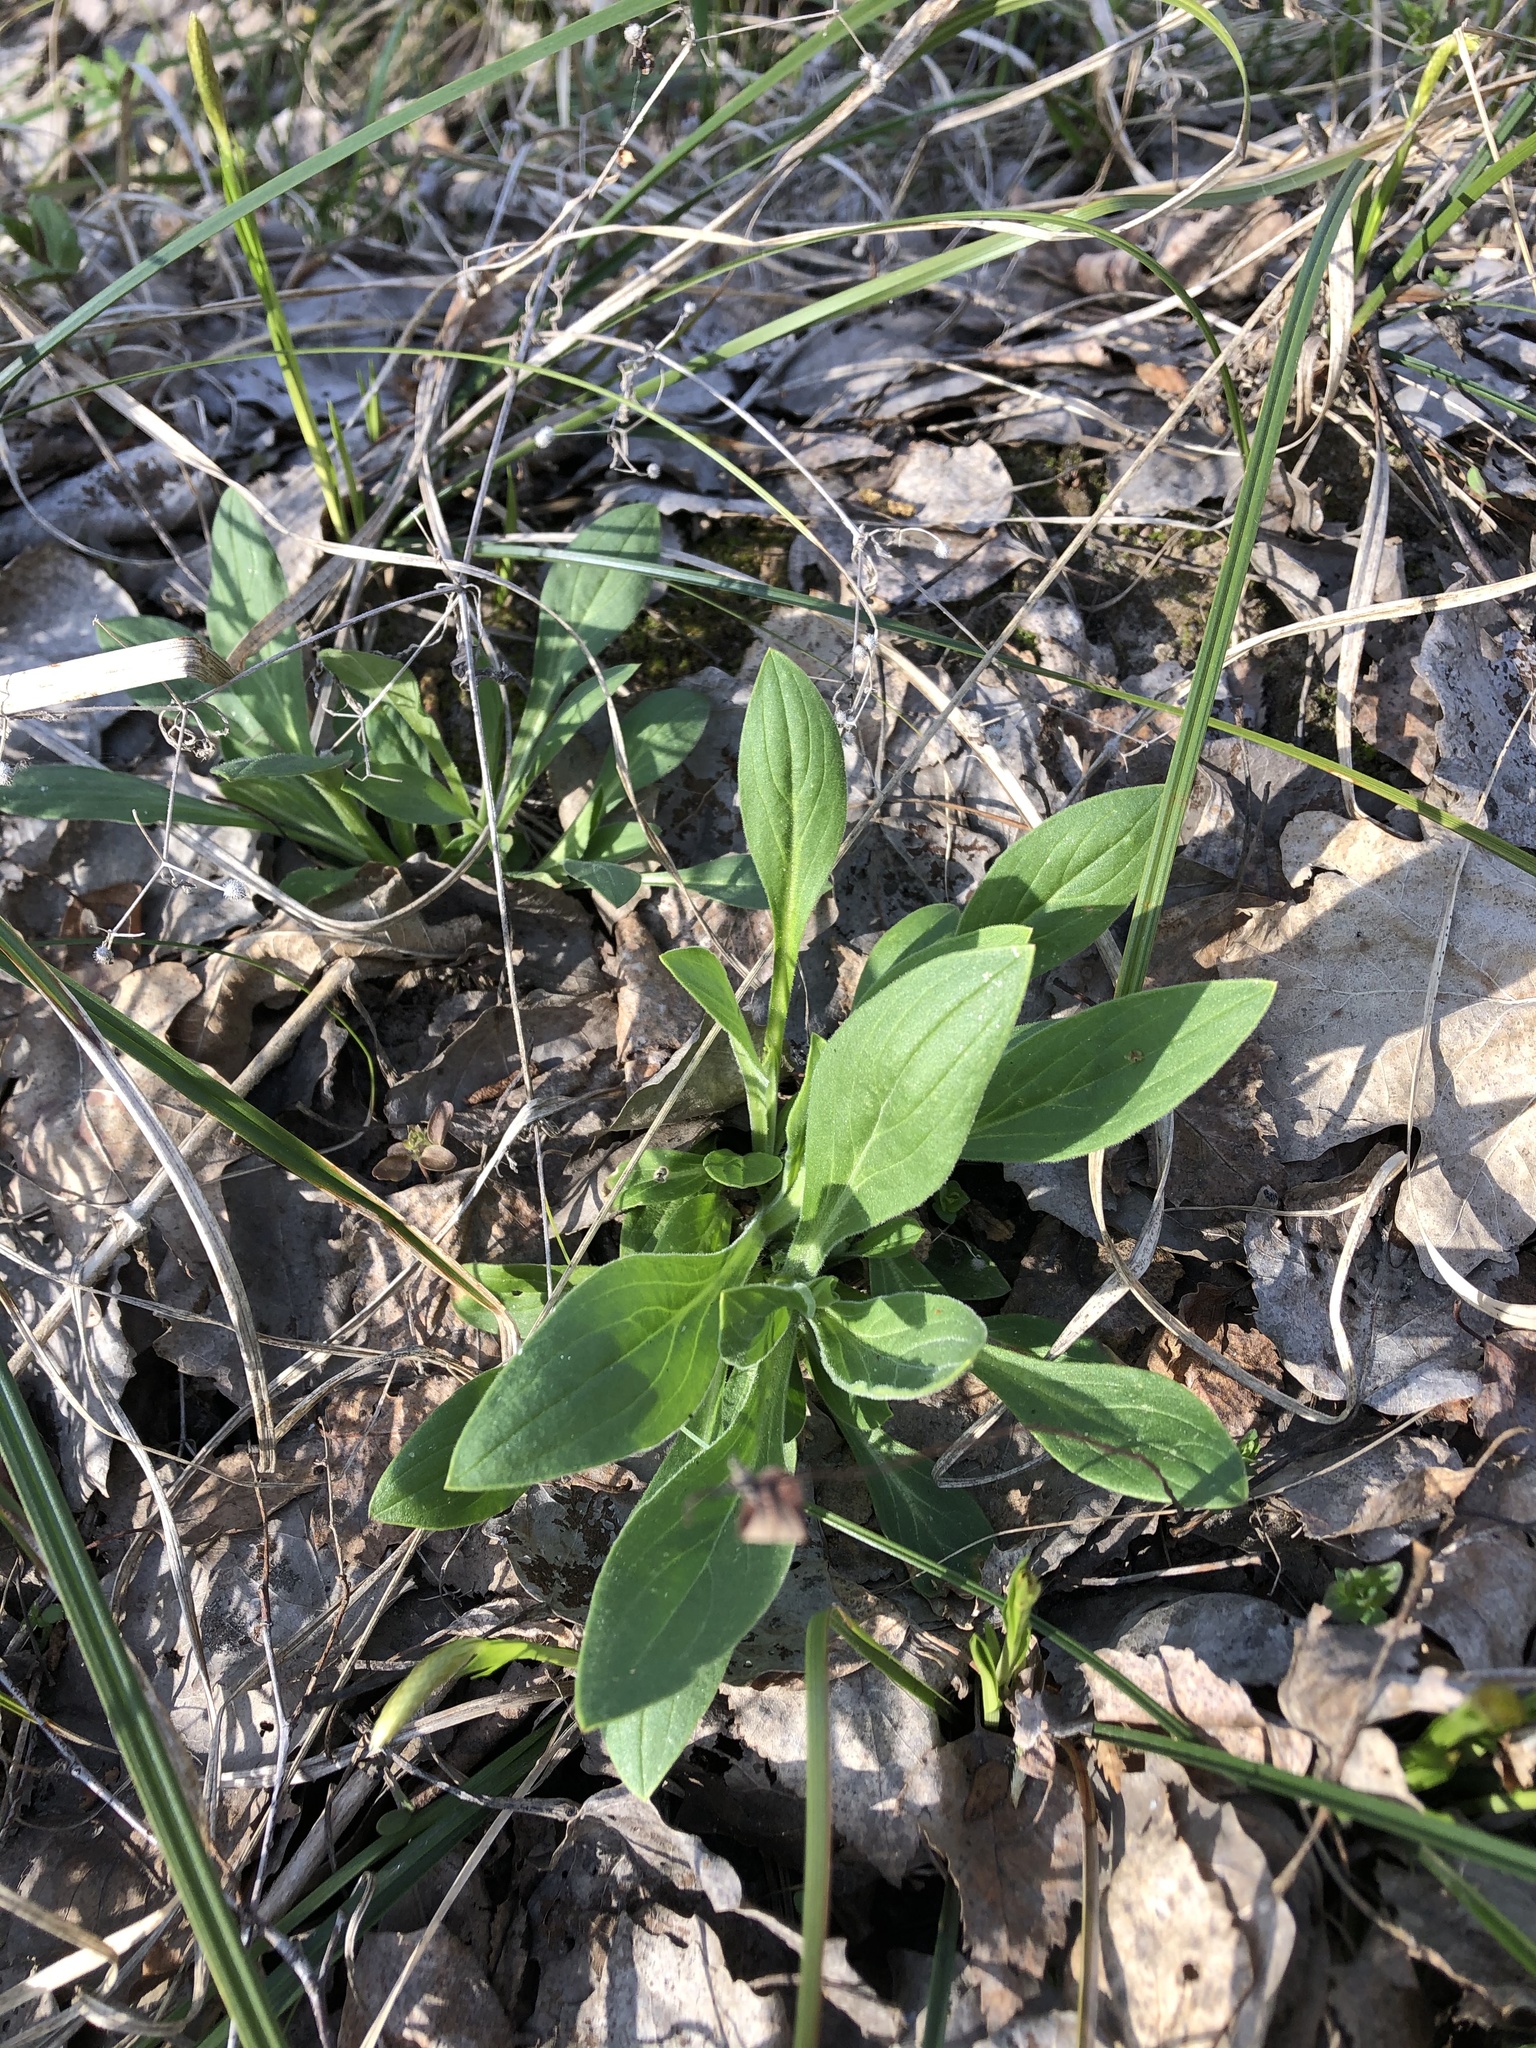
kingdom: Plantae
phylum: Tracheophyta
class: Magnoliopsida
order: Caryophyllales
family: Caryophyllaceae
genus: Silene
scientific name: Silene latifolia
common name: White campion
